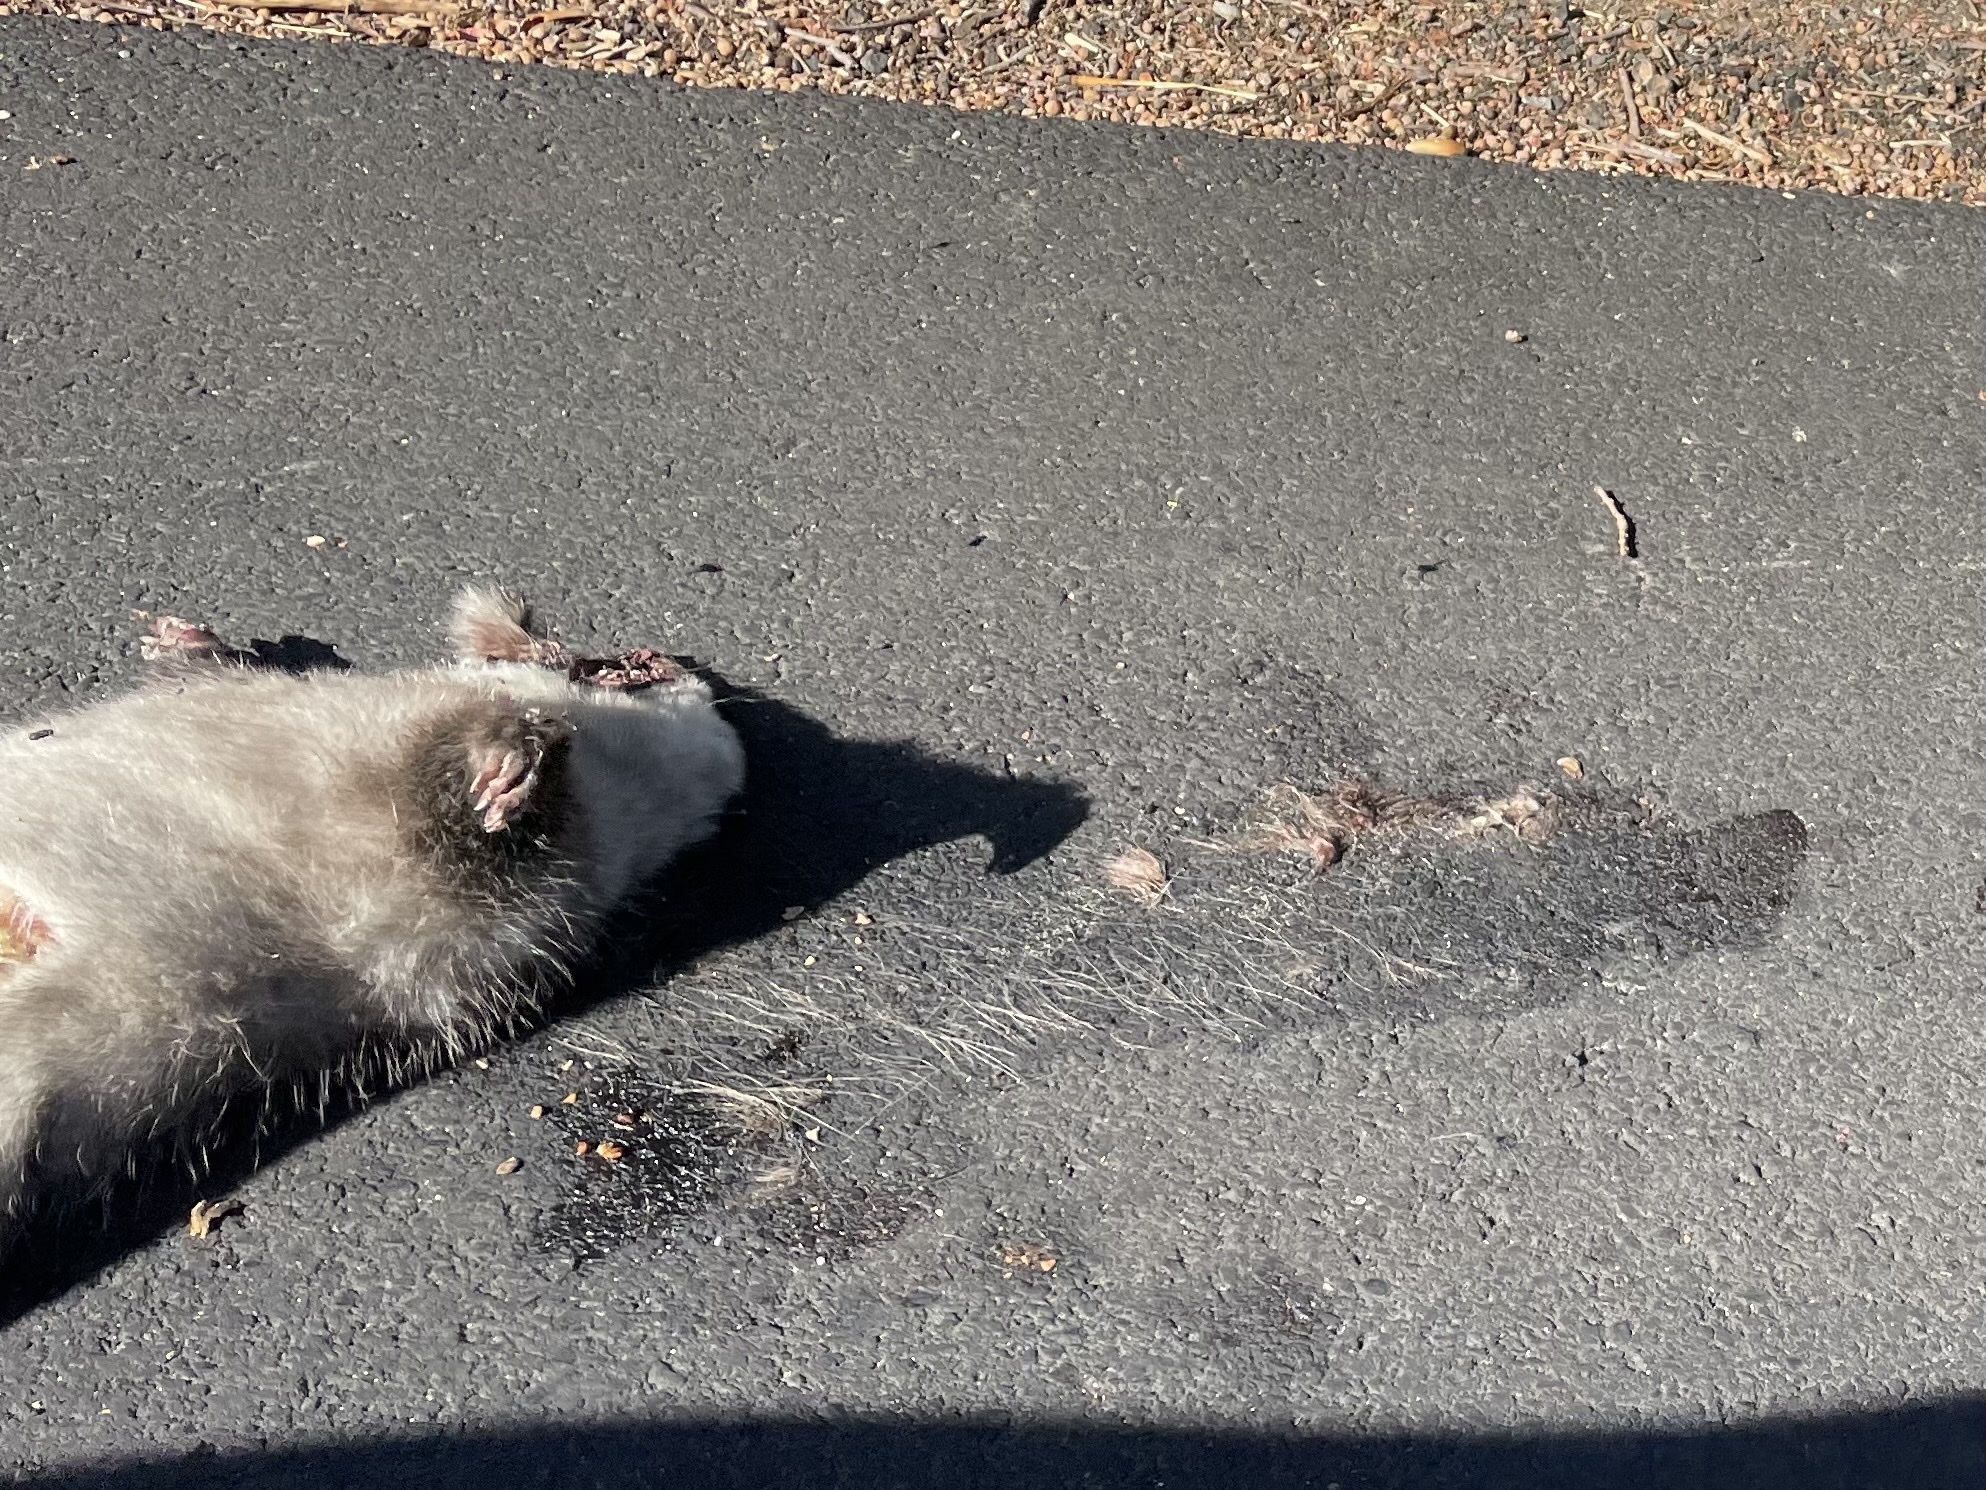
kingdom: Animalia
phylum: Chordata
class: Mammalia
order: Didelphimorphia
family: Didelphidae
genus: Didelphis
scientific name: Didelphis virginiana
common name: Virginia opossum
